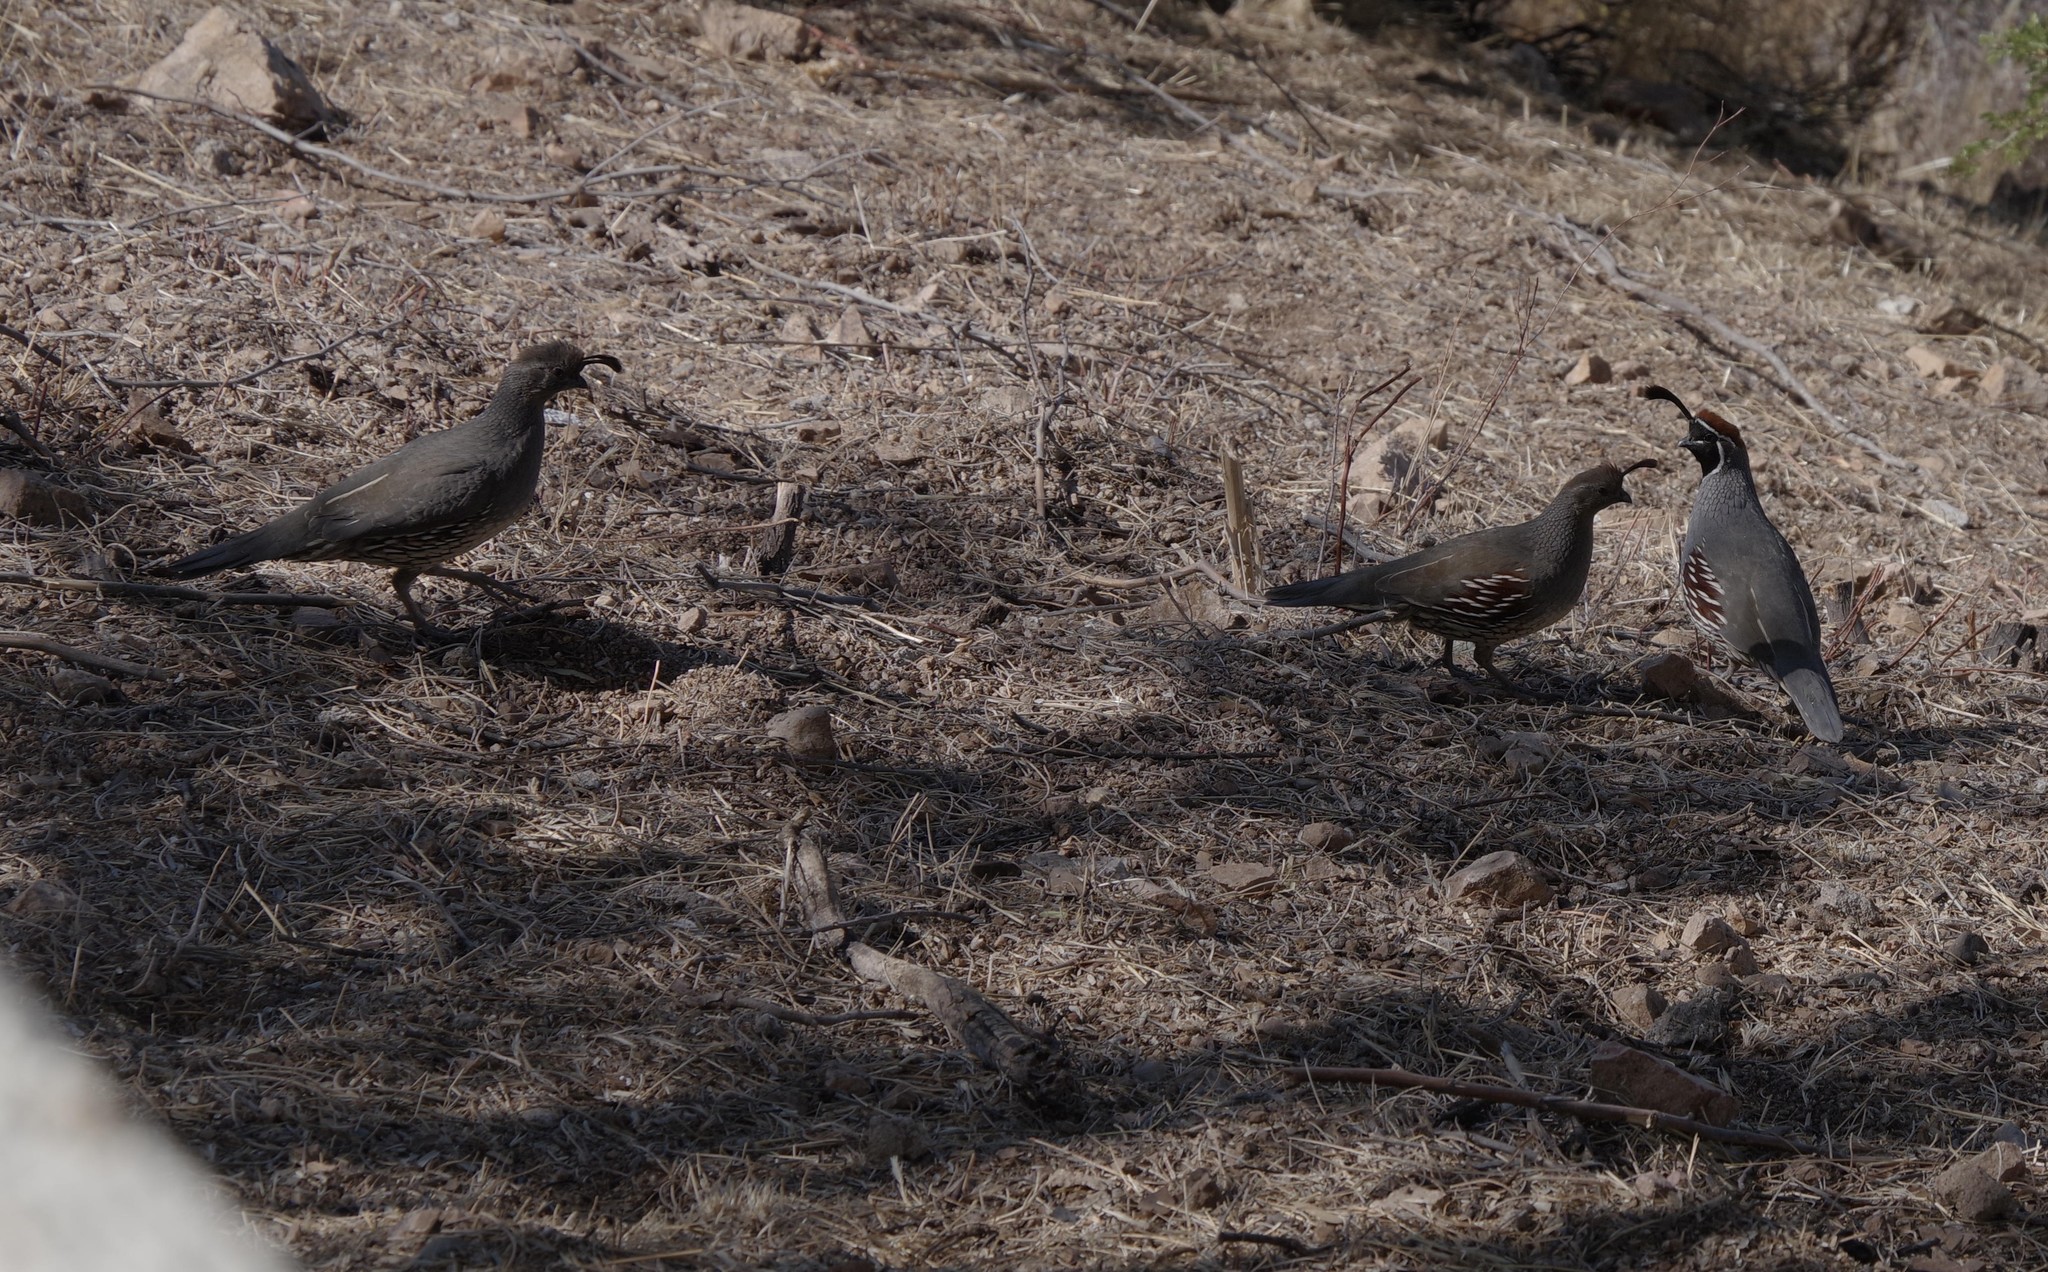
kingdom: Animalia
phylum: Chordata
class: Aves
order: Galliformes
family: Odontophoridae
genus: Callipepla
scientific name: Callipepla gambelii
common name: Gambel's quail
